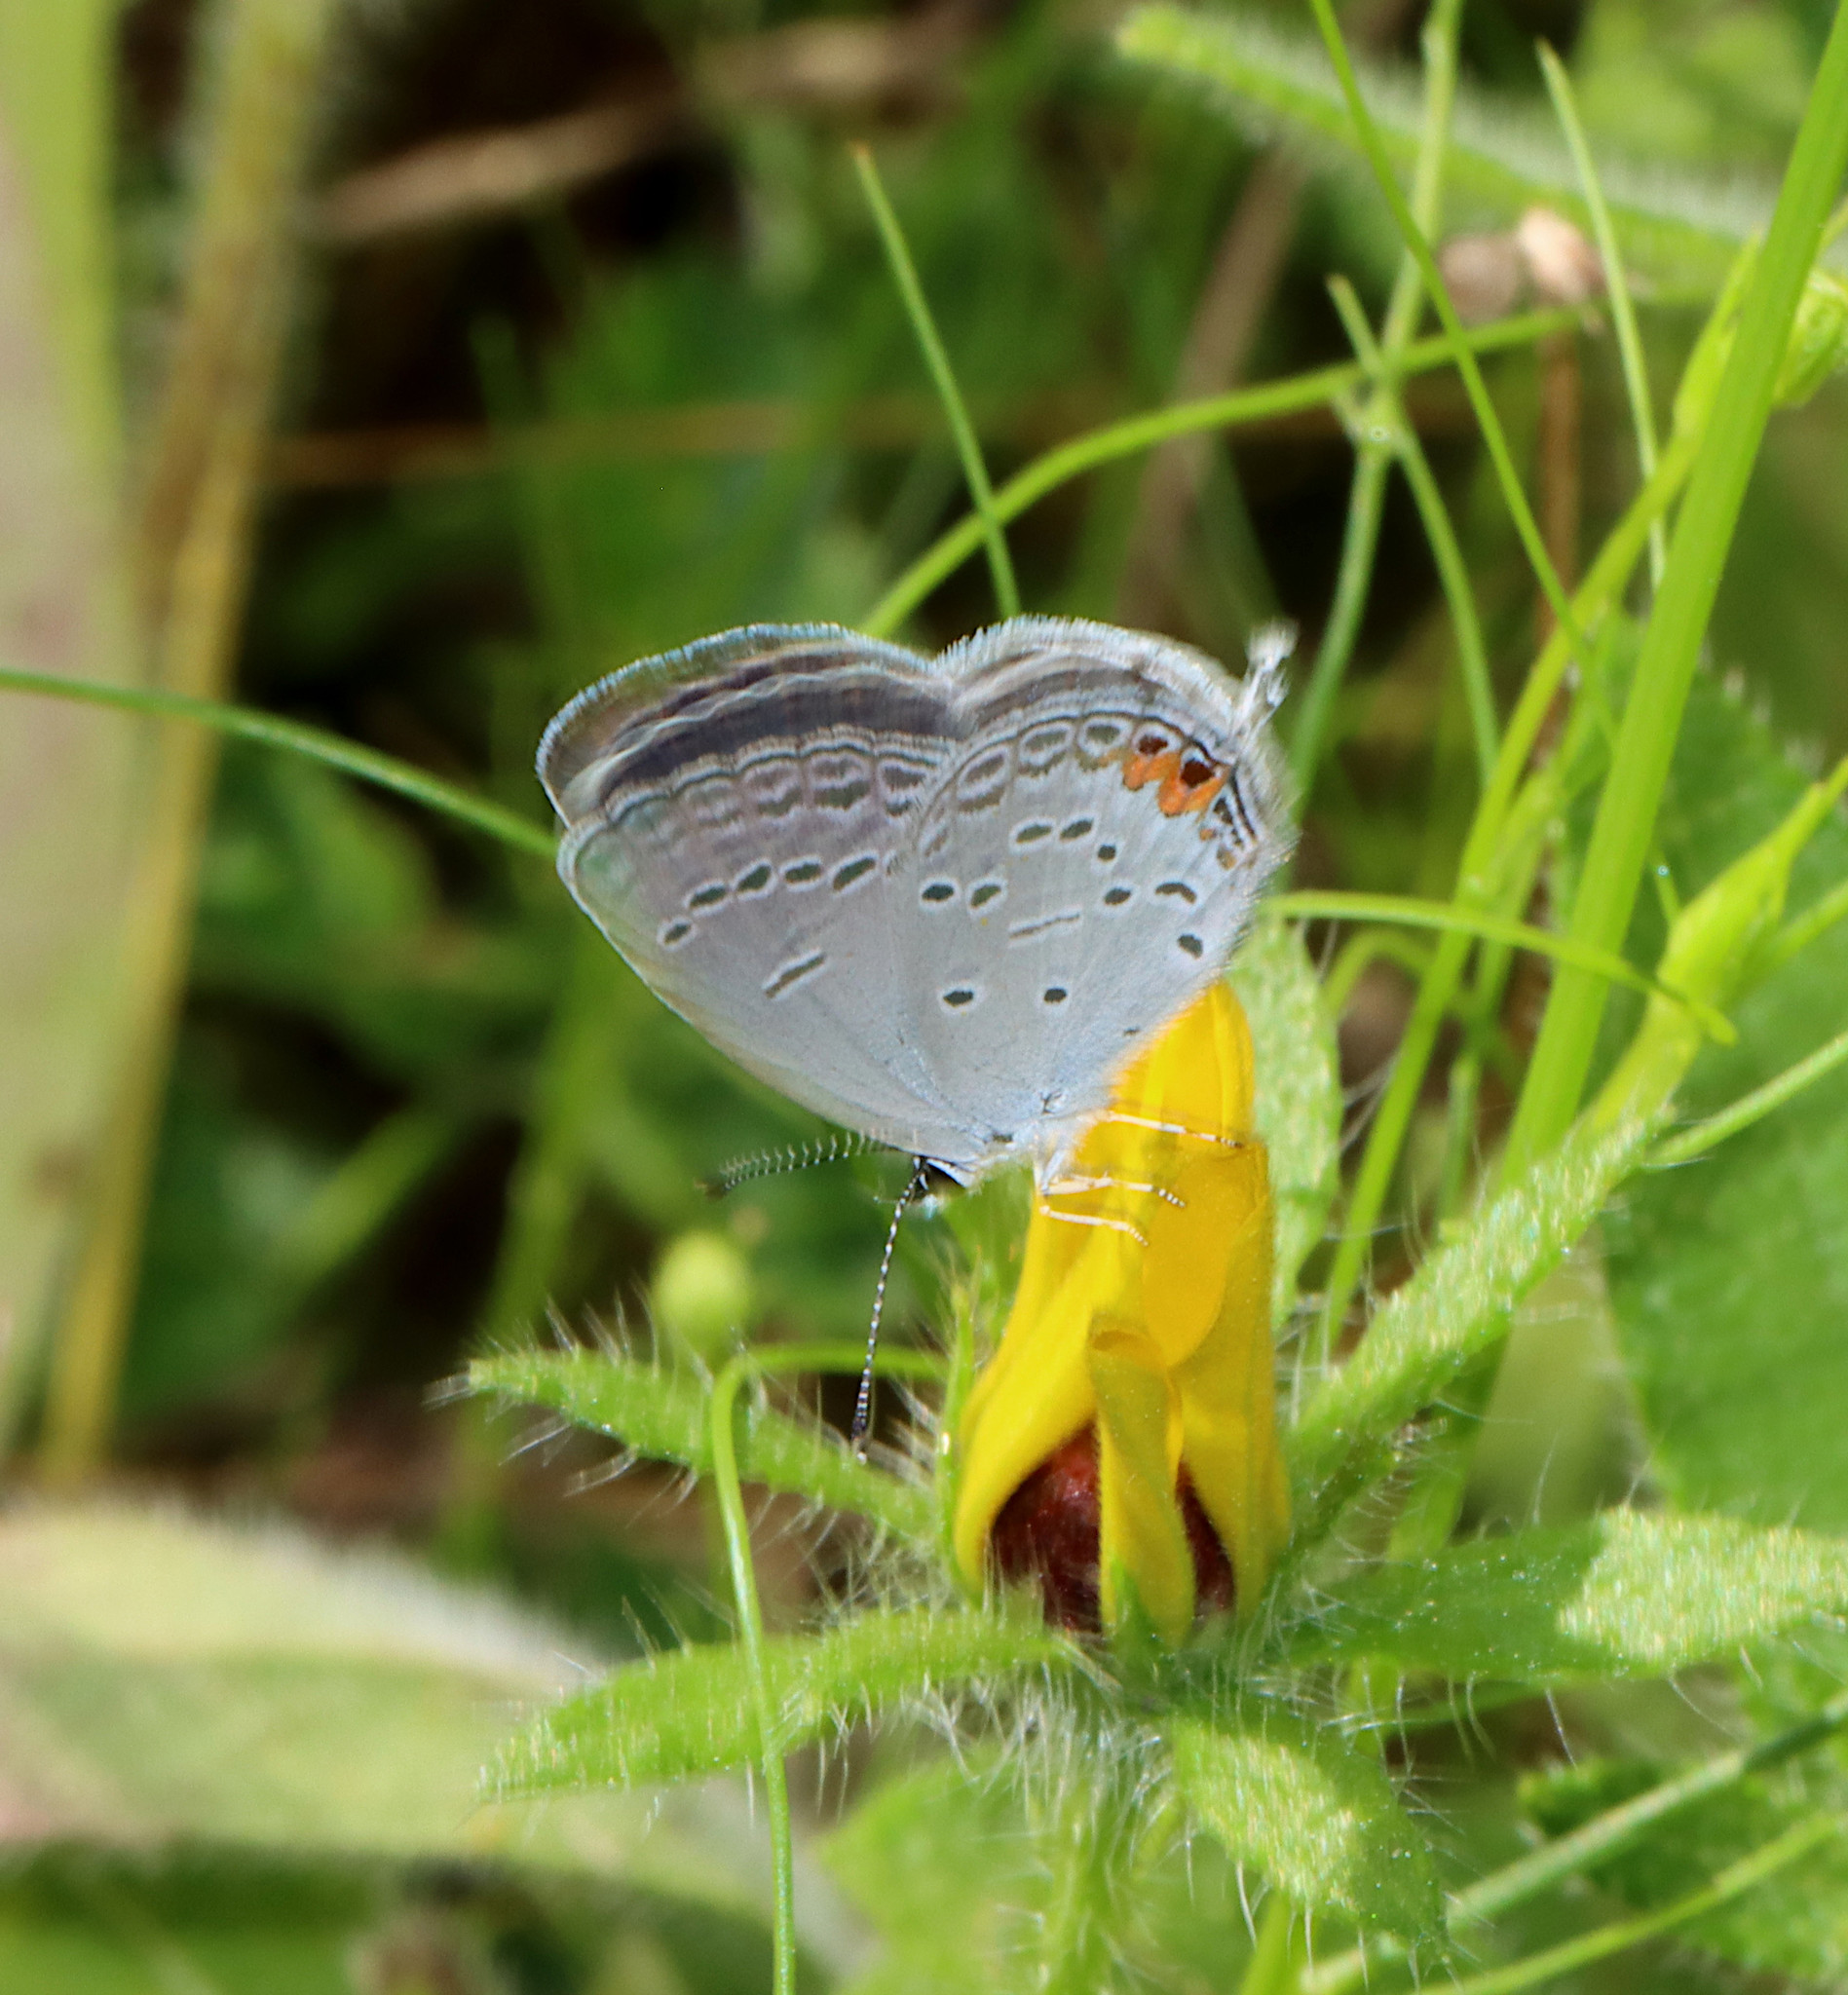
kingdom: Animalia
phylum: Arthropoda
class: Insecta
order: Lepidoptera
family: Lycaenidae
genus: Elkalyce
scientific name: Elkalyce comyntas
